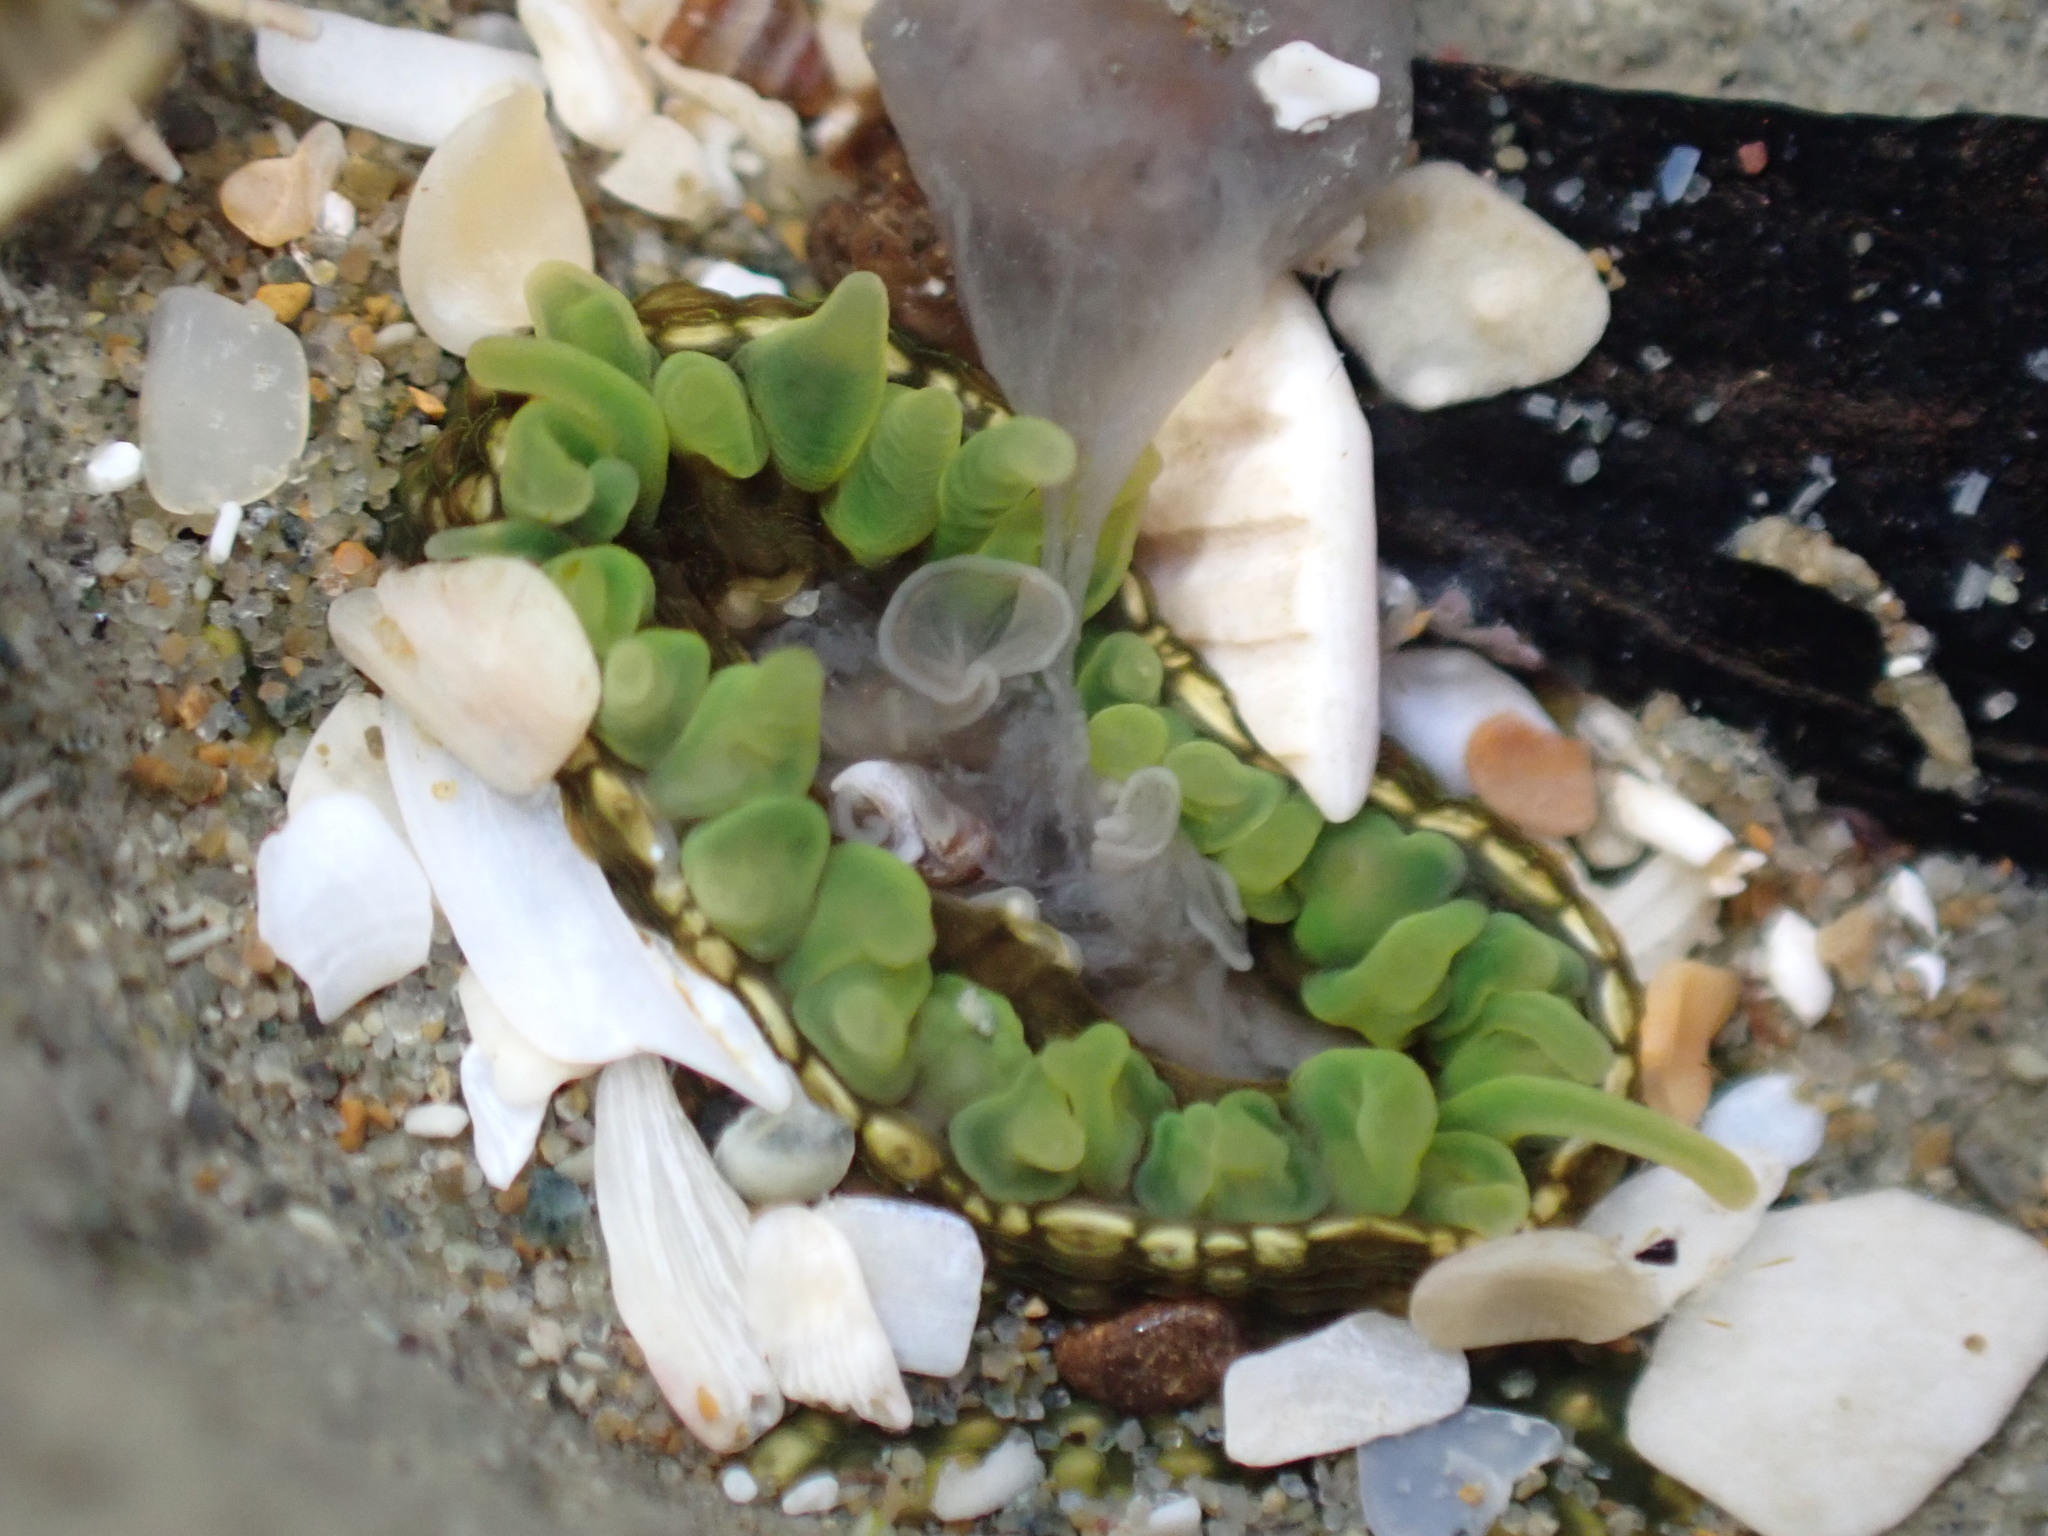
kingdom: Animalia
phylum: Cnidaria
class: Anthozoa
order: Actiniaria
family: Actiniidae
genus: Aulactinia
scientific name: Aulactinia veratra
